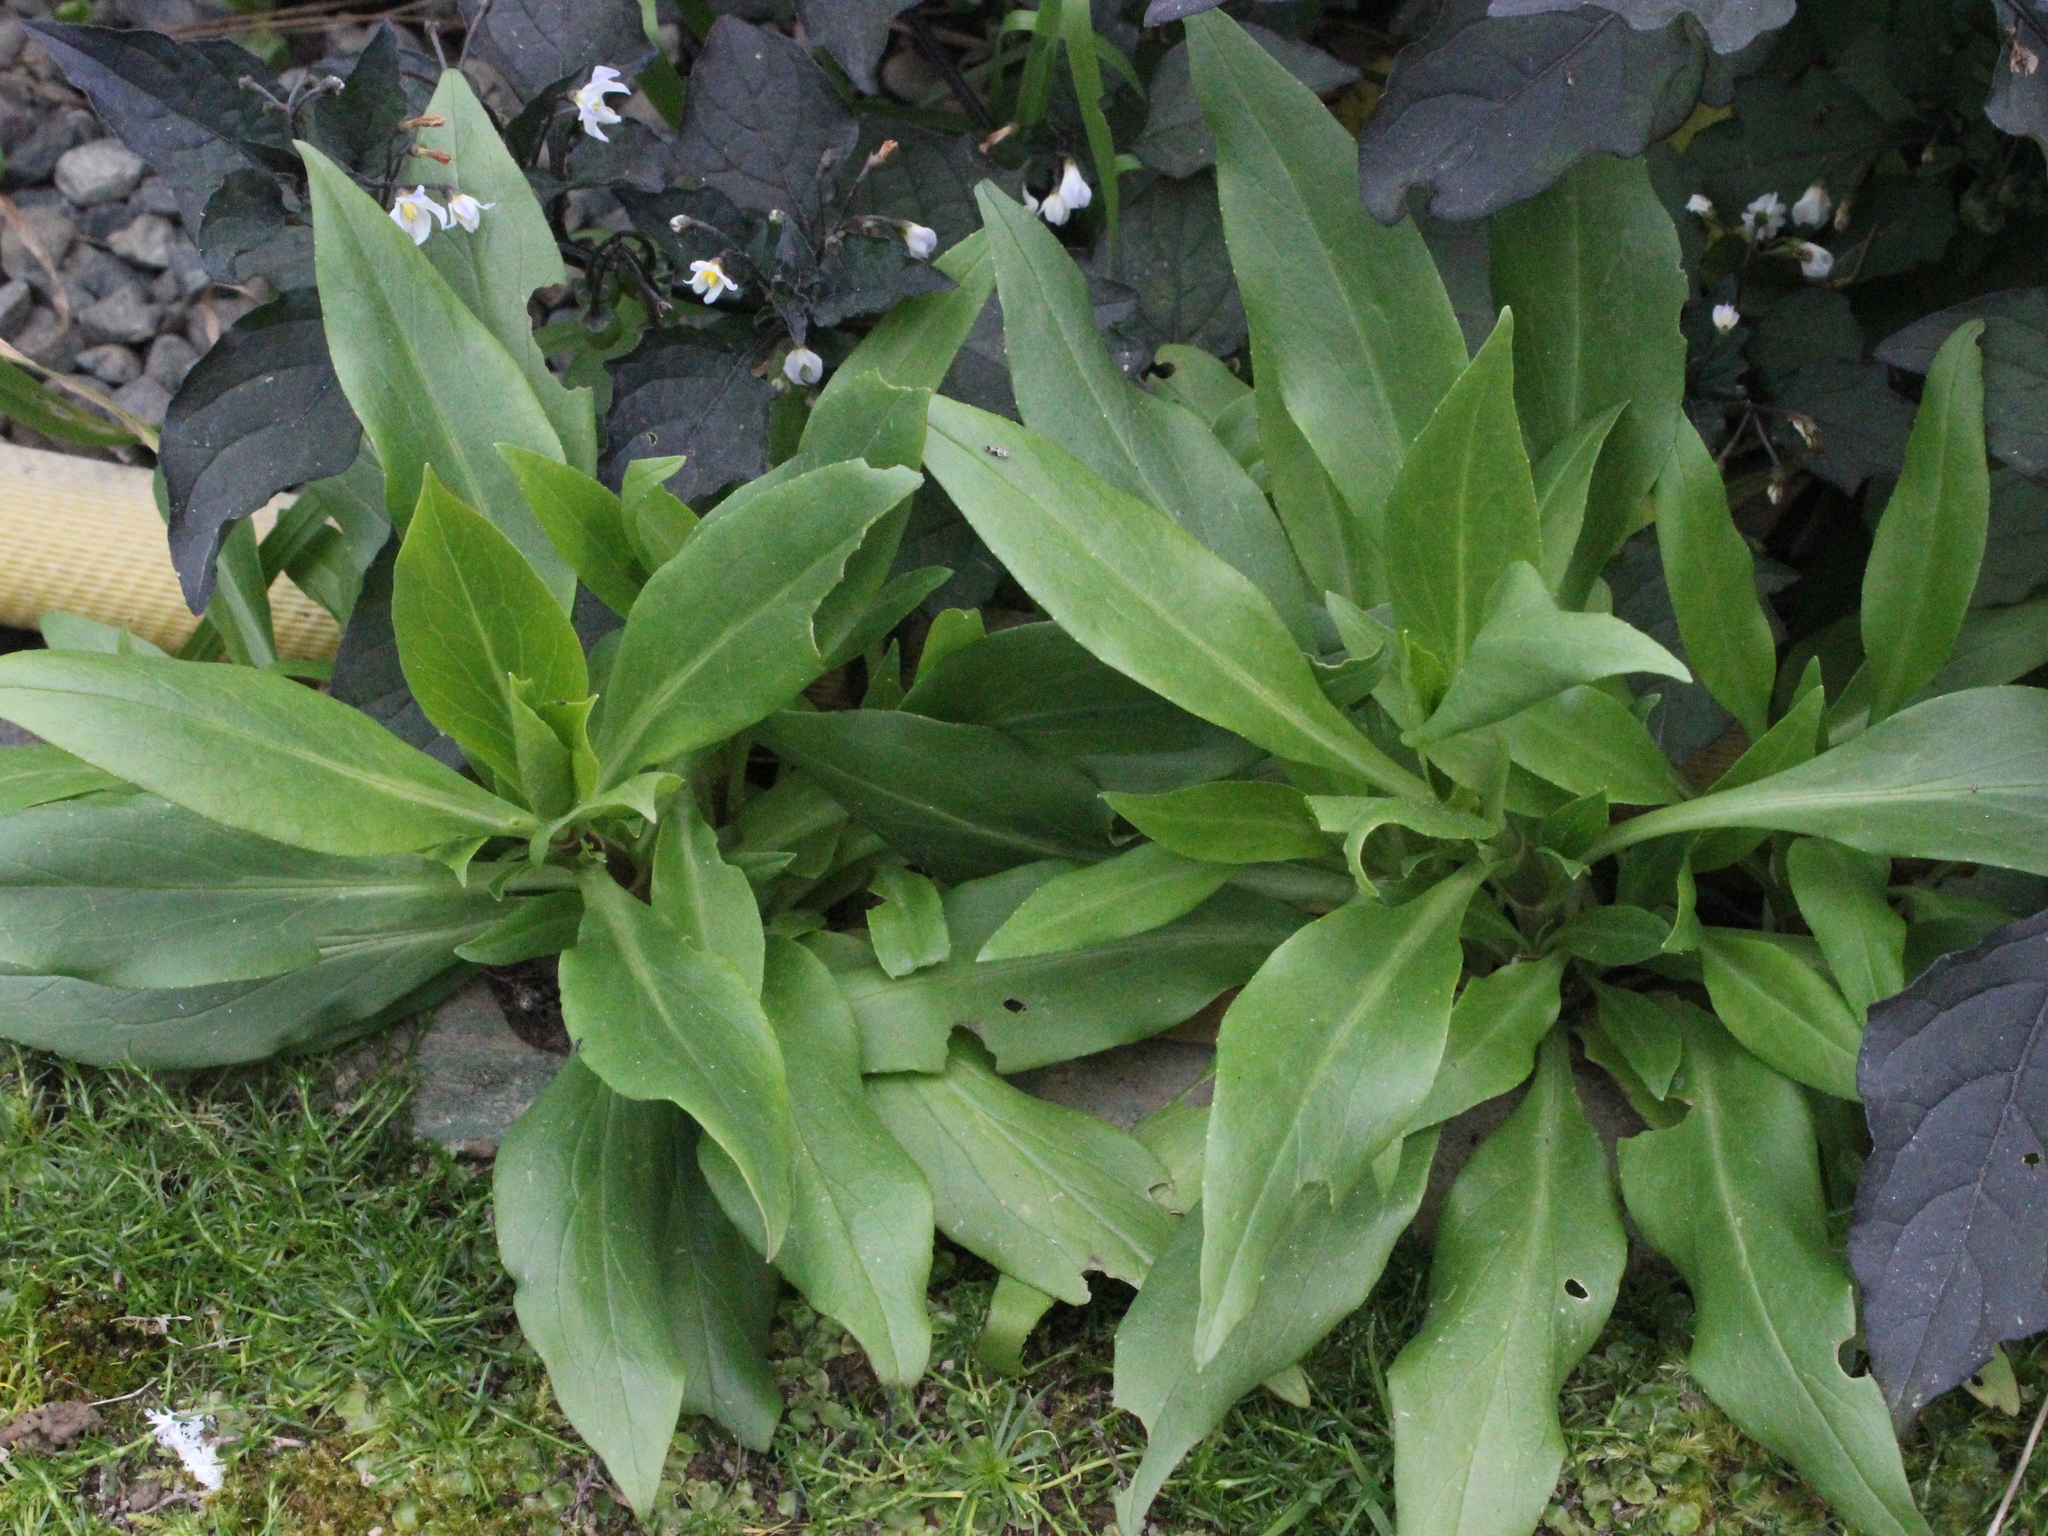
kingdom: Plantae
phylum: Tracheophyta
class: Magnoliopsida
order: Dipsacales
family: Caprifoliaceae
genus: Centranthus
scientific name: Centranthus ruber
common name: Red valerian
